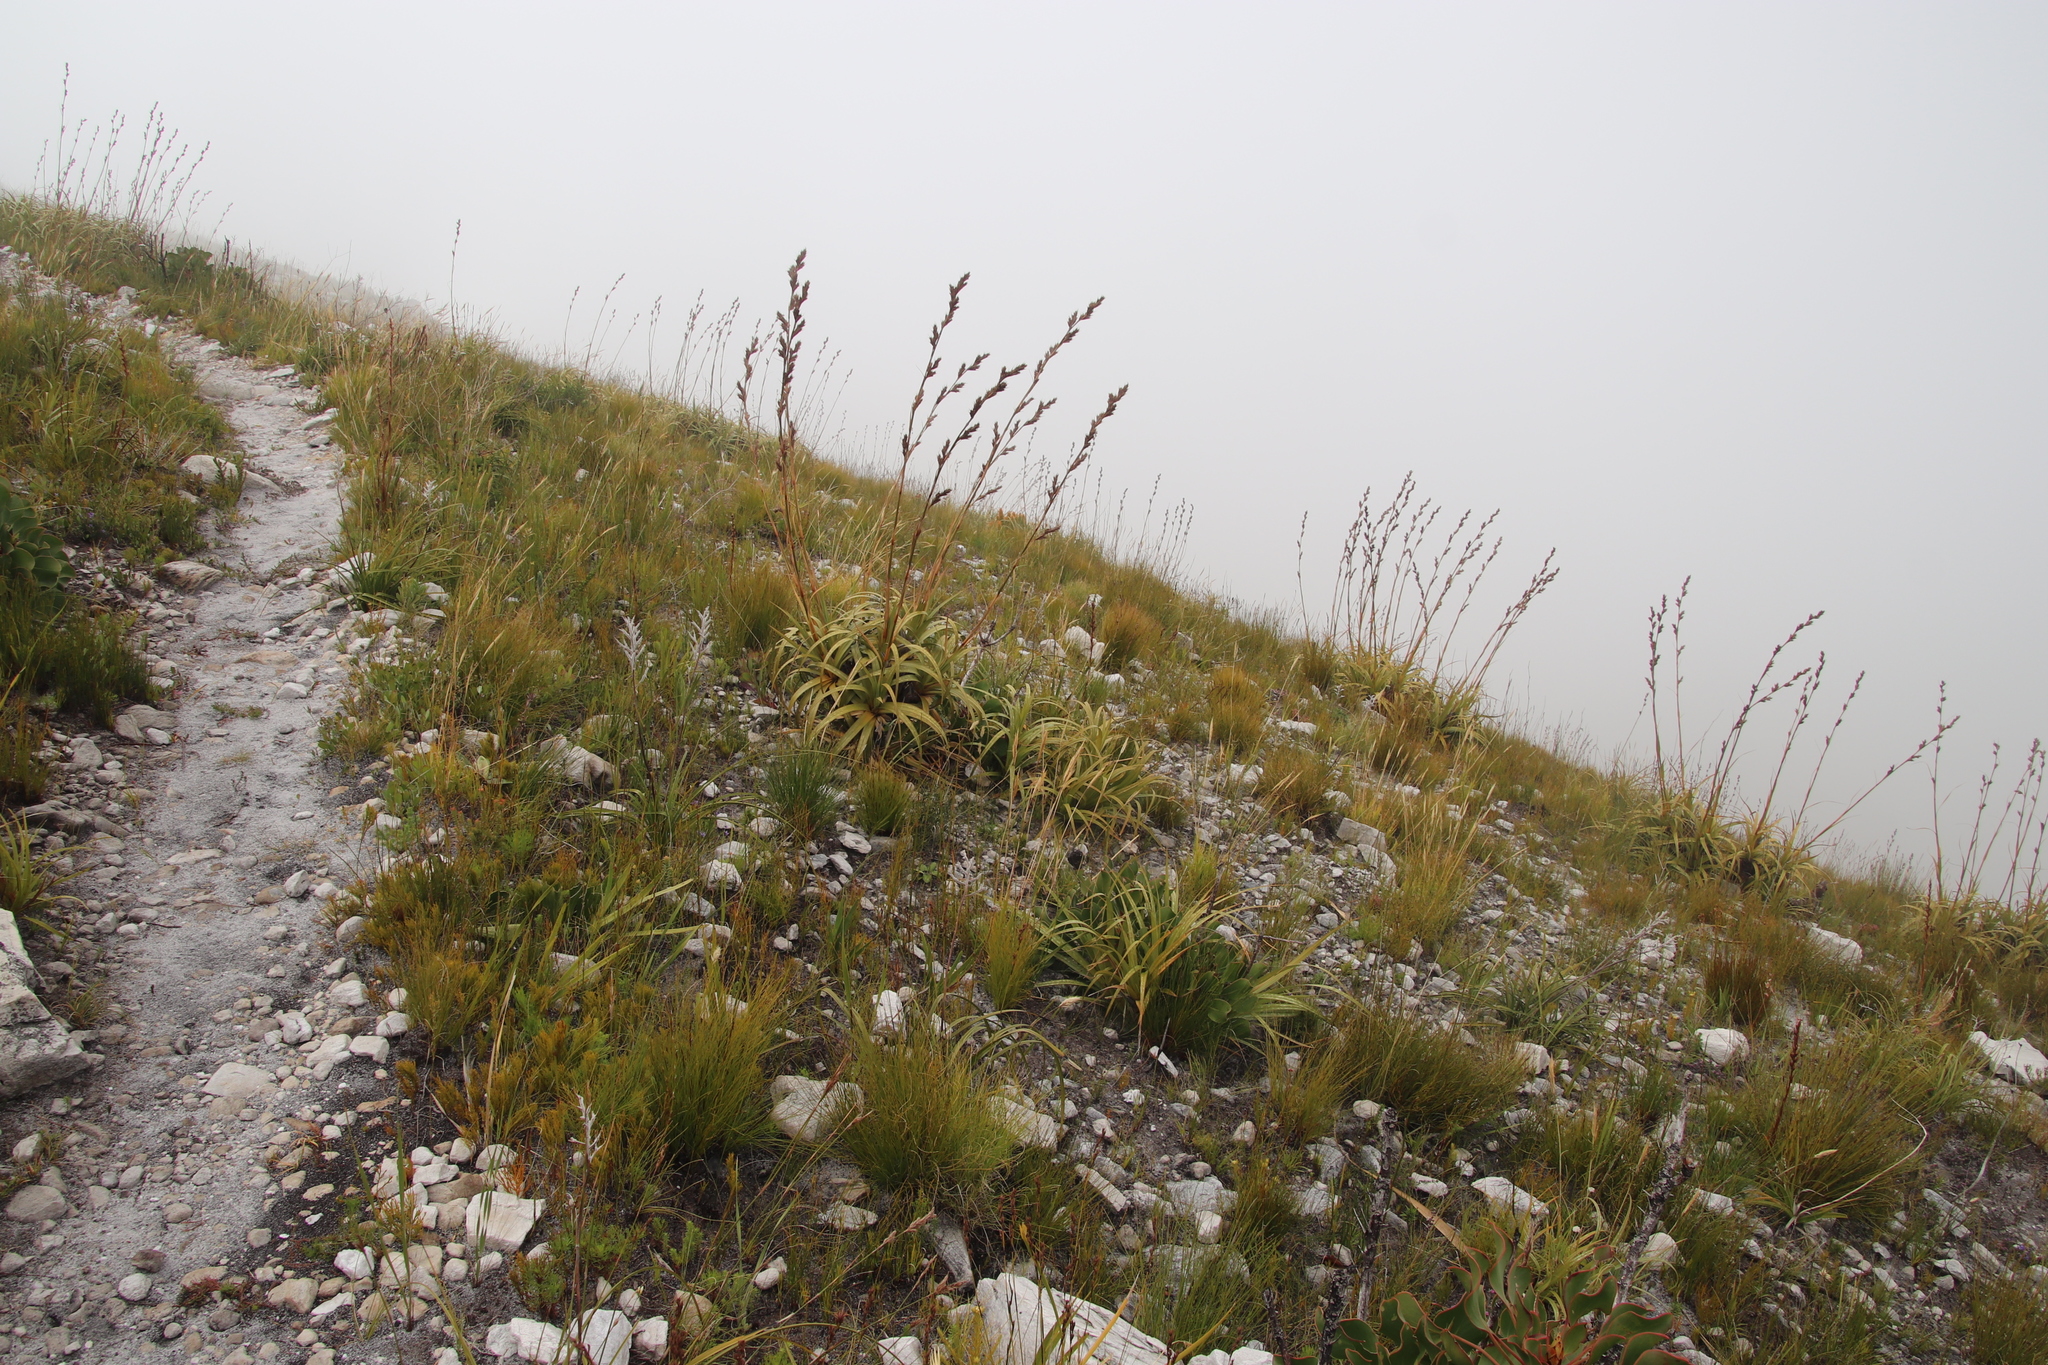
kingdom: Plantae
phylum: Tracheophyta
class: Liliopsida
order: Poales
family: Cyperaceae
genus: Tetraria
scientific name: Tetraria thermalis
